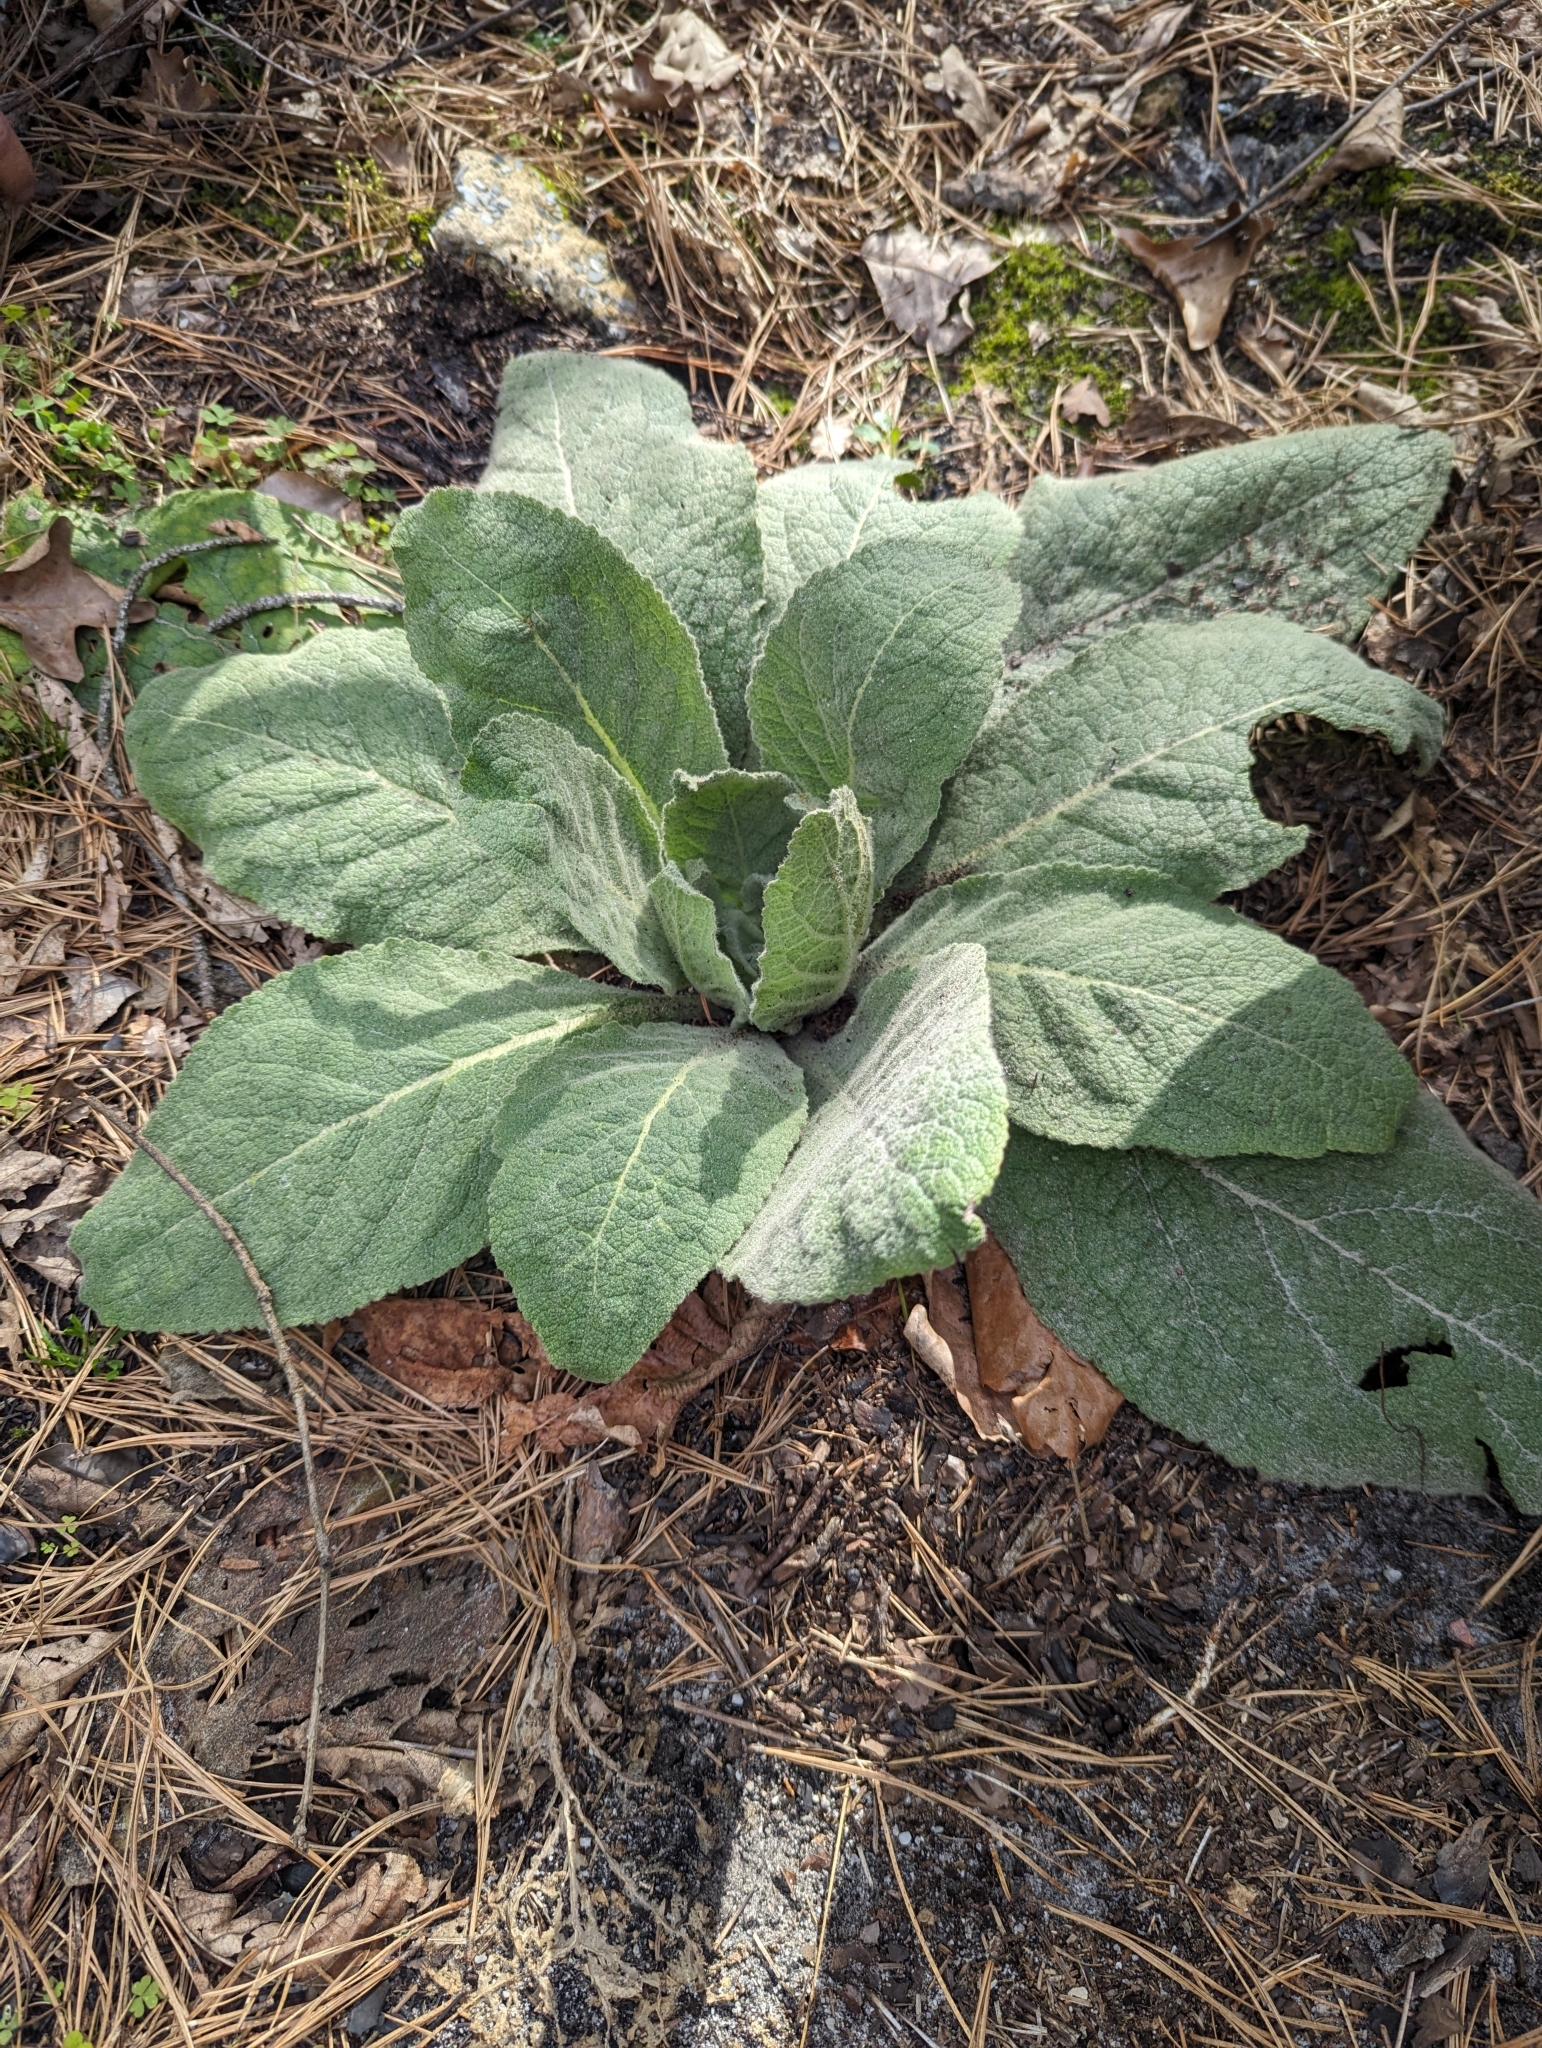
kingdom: Plantae
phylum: Tracheophyta
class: Magnoliopsida
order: Lamiales
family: Scrophulariaceae
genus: Verbascum
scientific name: Verbascum thapsus
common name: Common mullein
